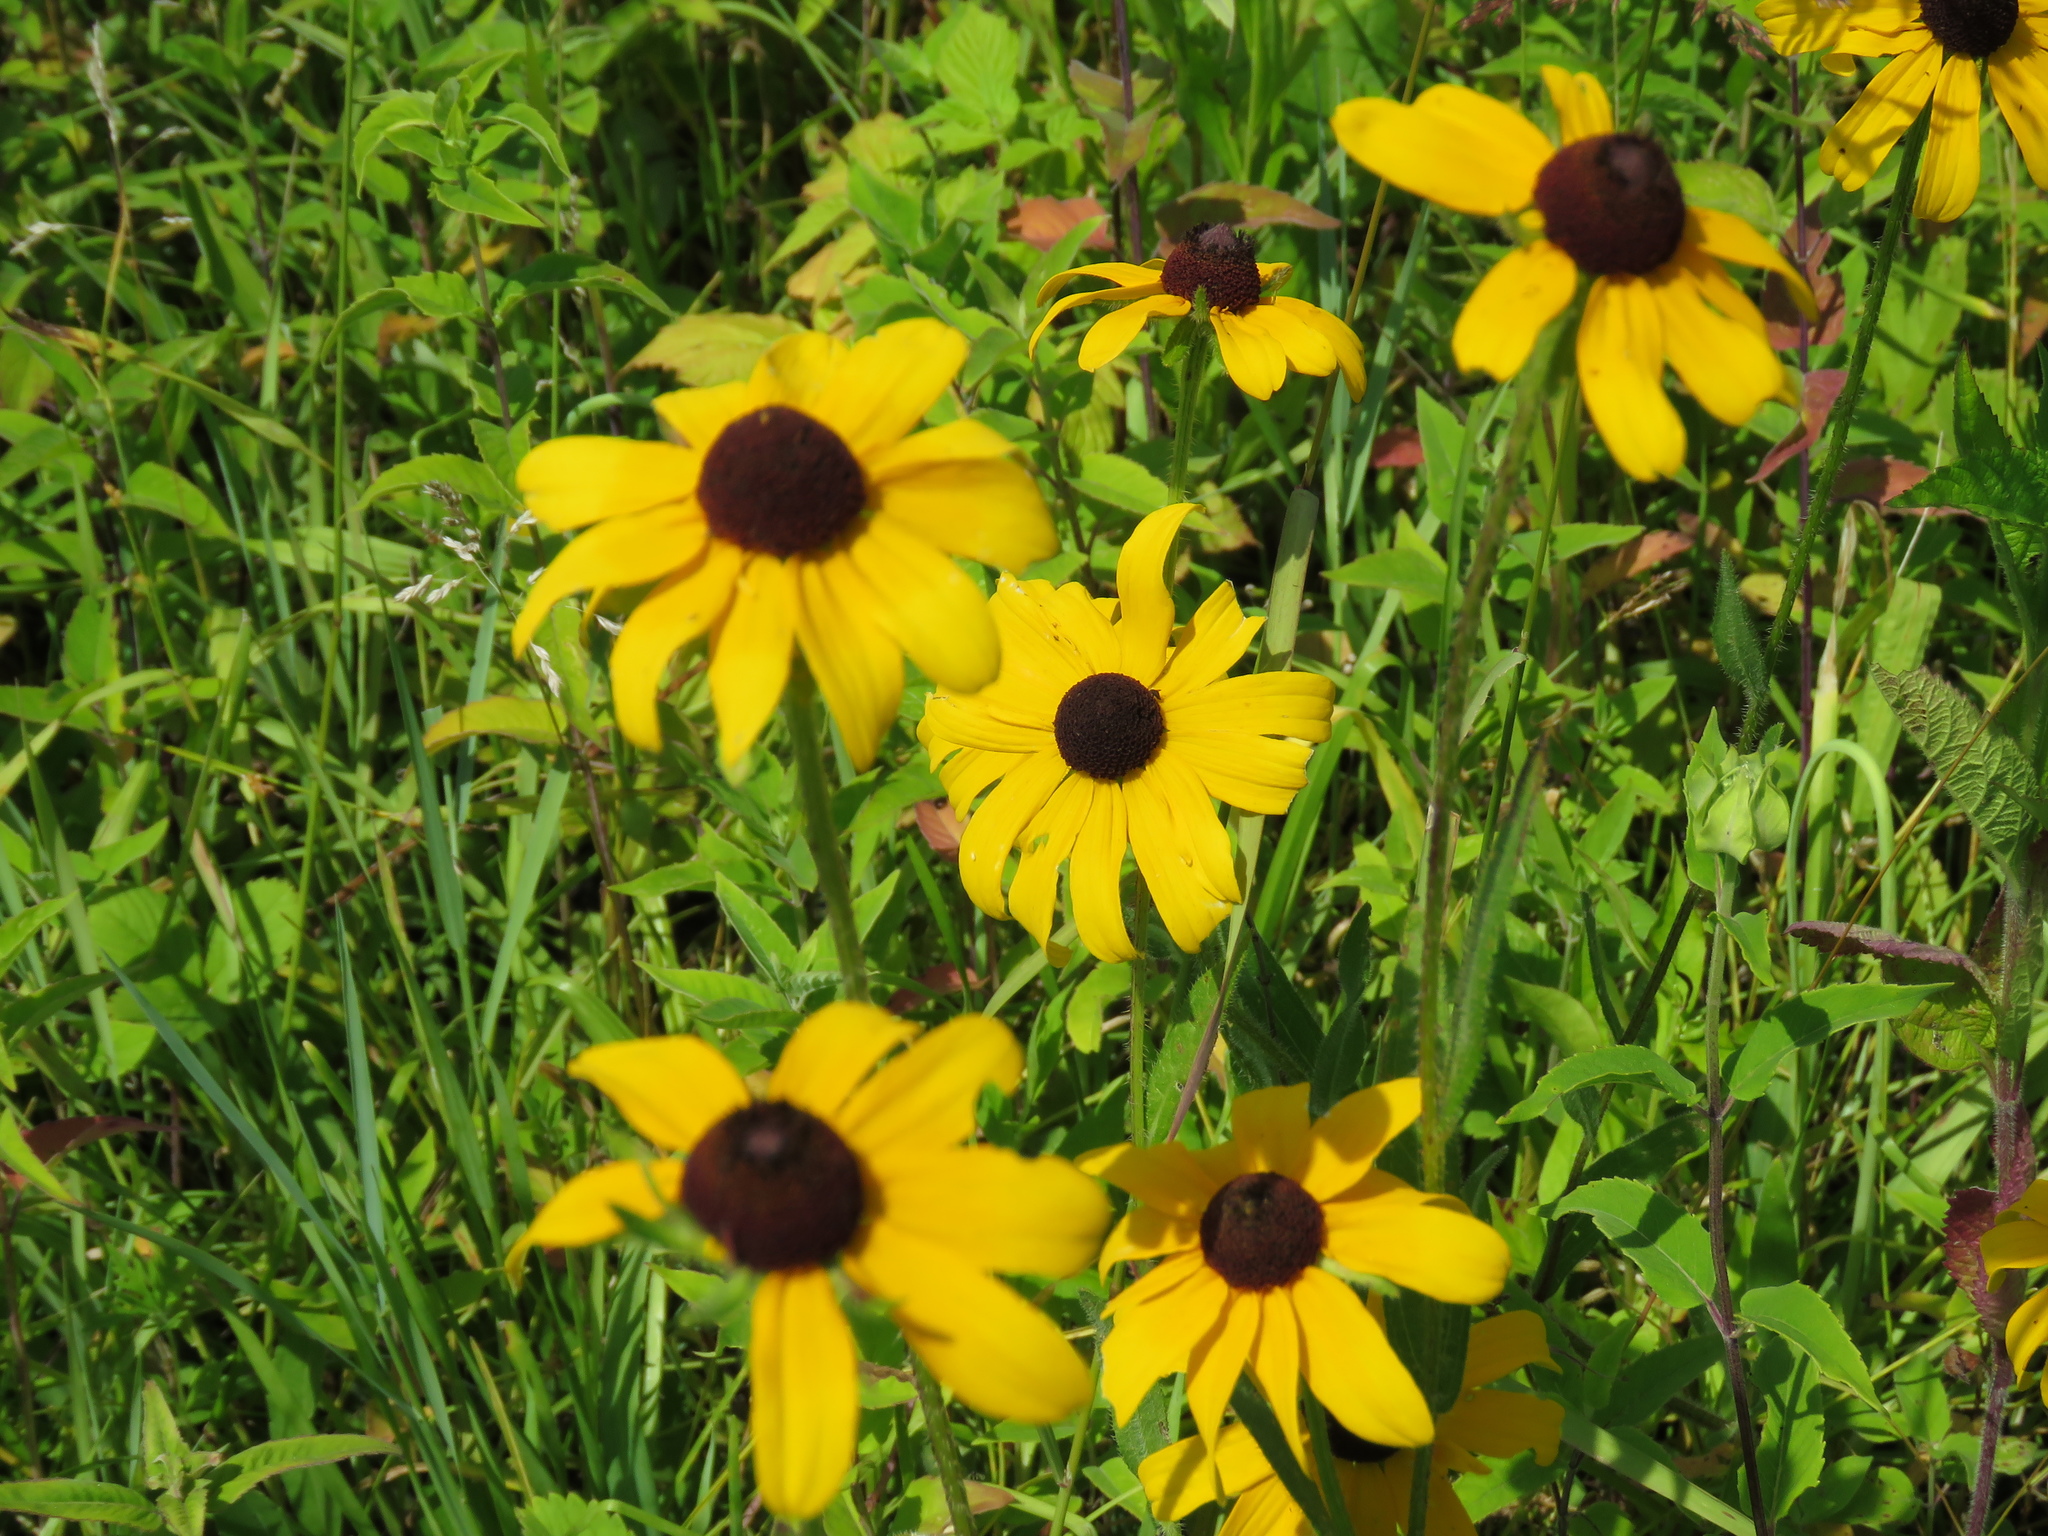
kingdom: Plantae
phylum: Tracheophyta
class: Magnoliopsida
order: Asterales
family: Asteraceae
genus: Rudbeckia
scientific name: Rudbeckia hirta
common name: Black-eyed-susan
